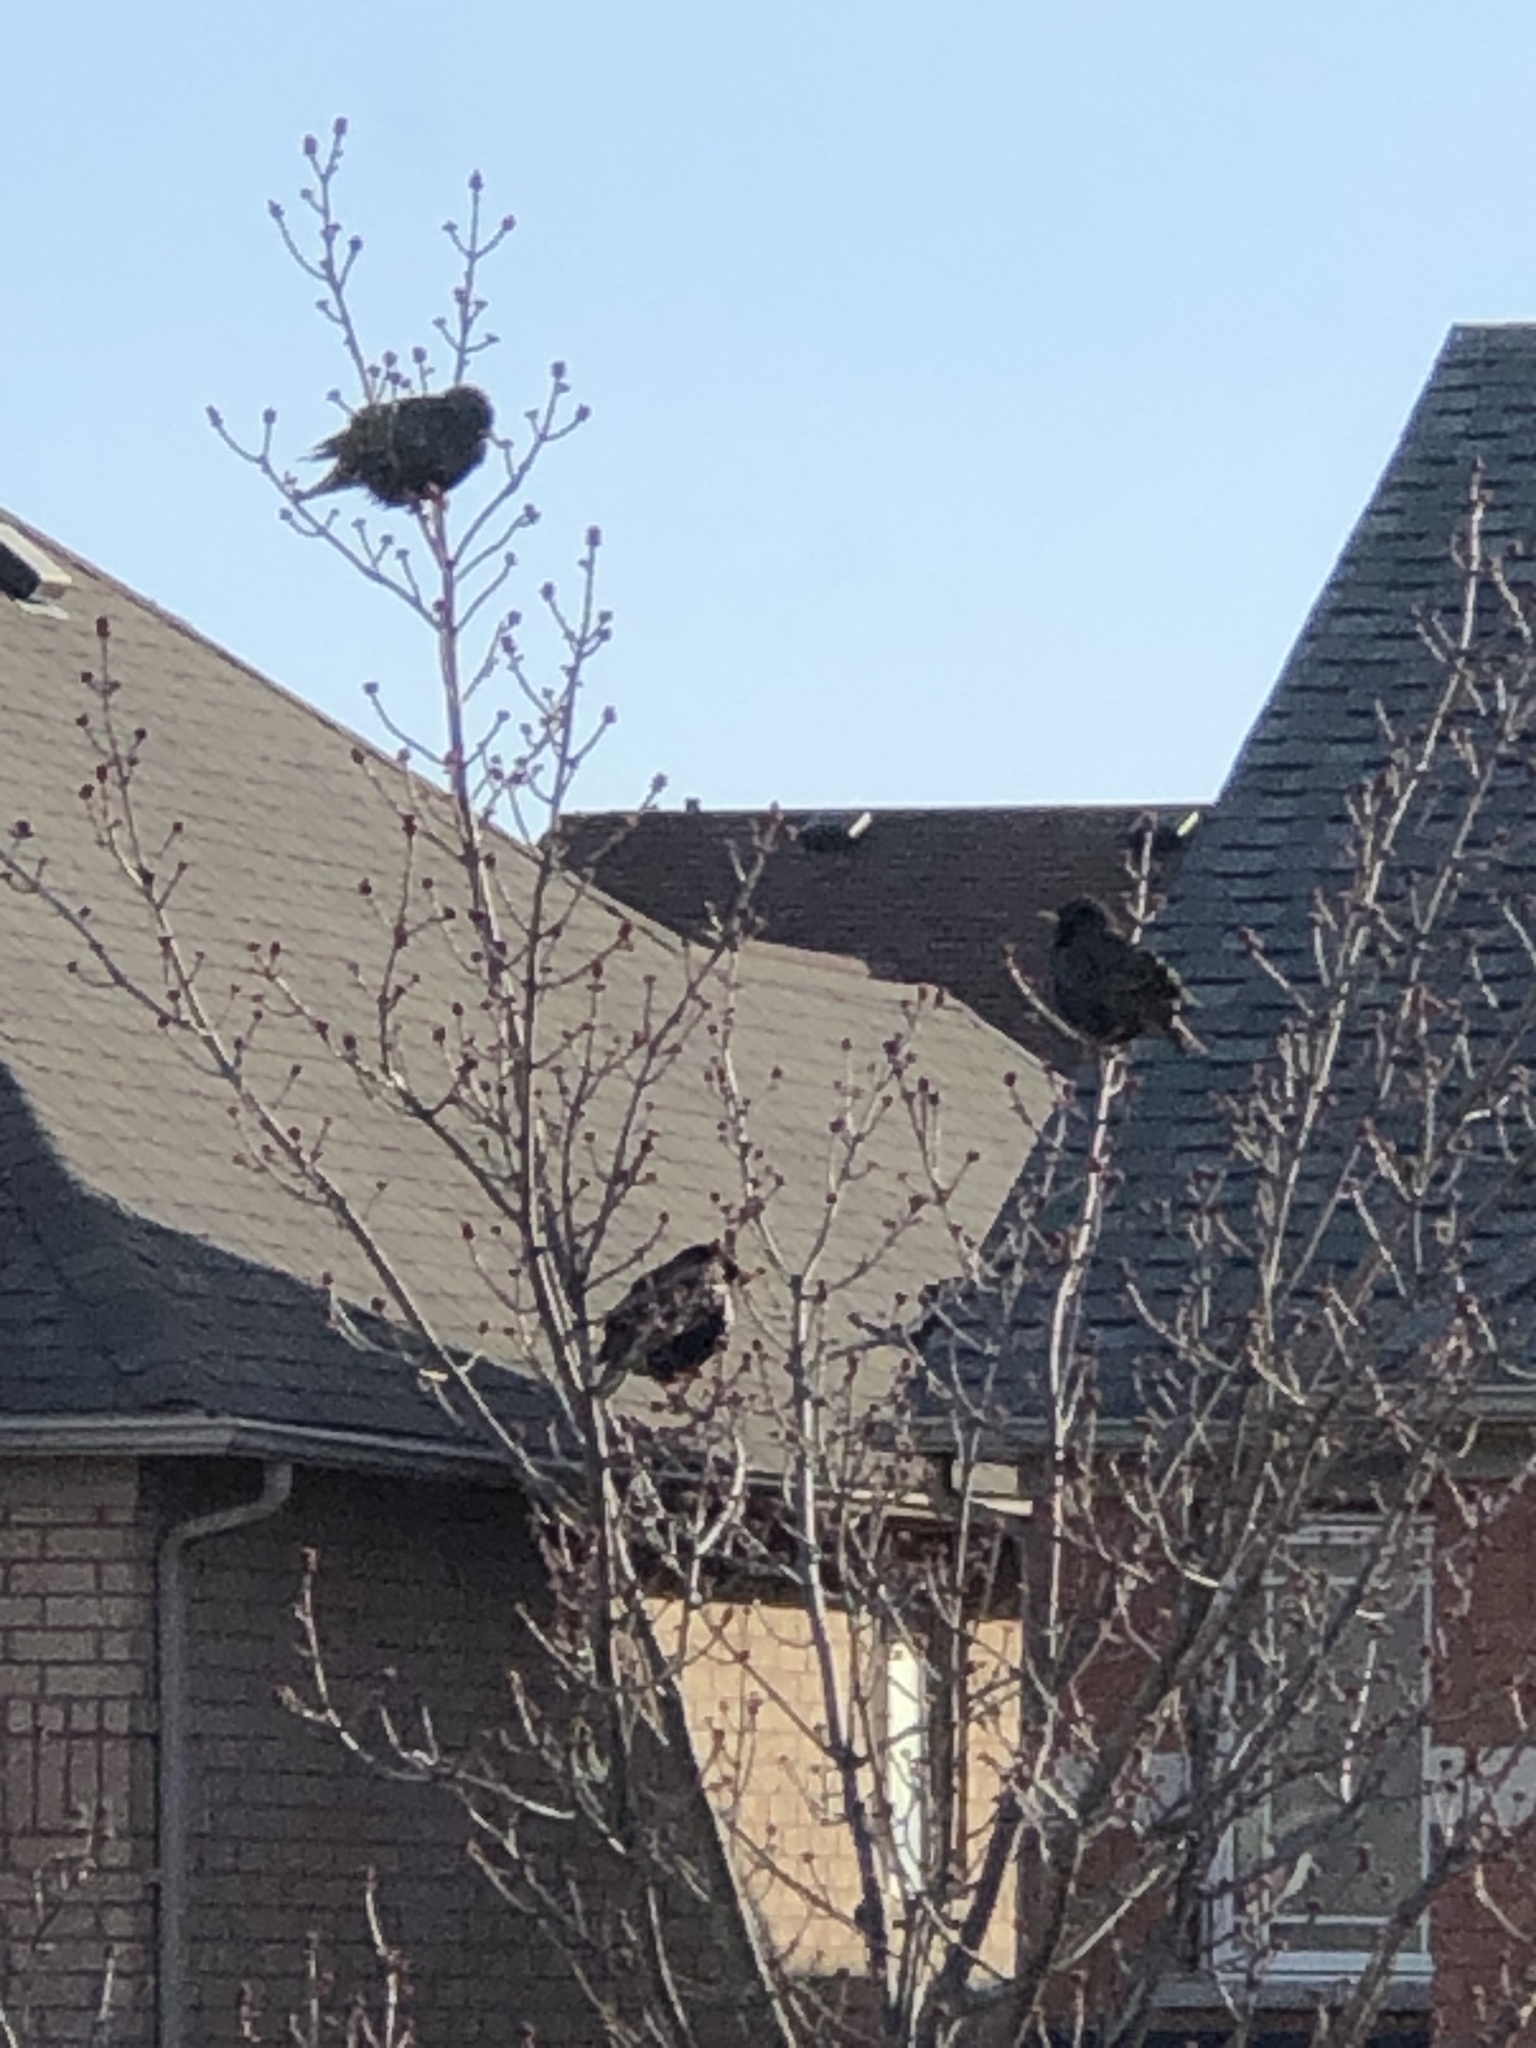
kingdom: Animalia
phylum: Chordata
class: Aves
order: Passeriformes
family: Sturnidae
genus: Sturnus
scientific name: Sturnus vulgaris
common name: Common starling
